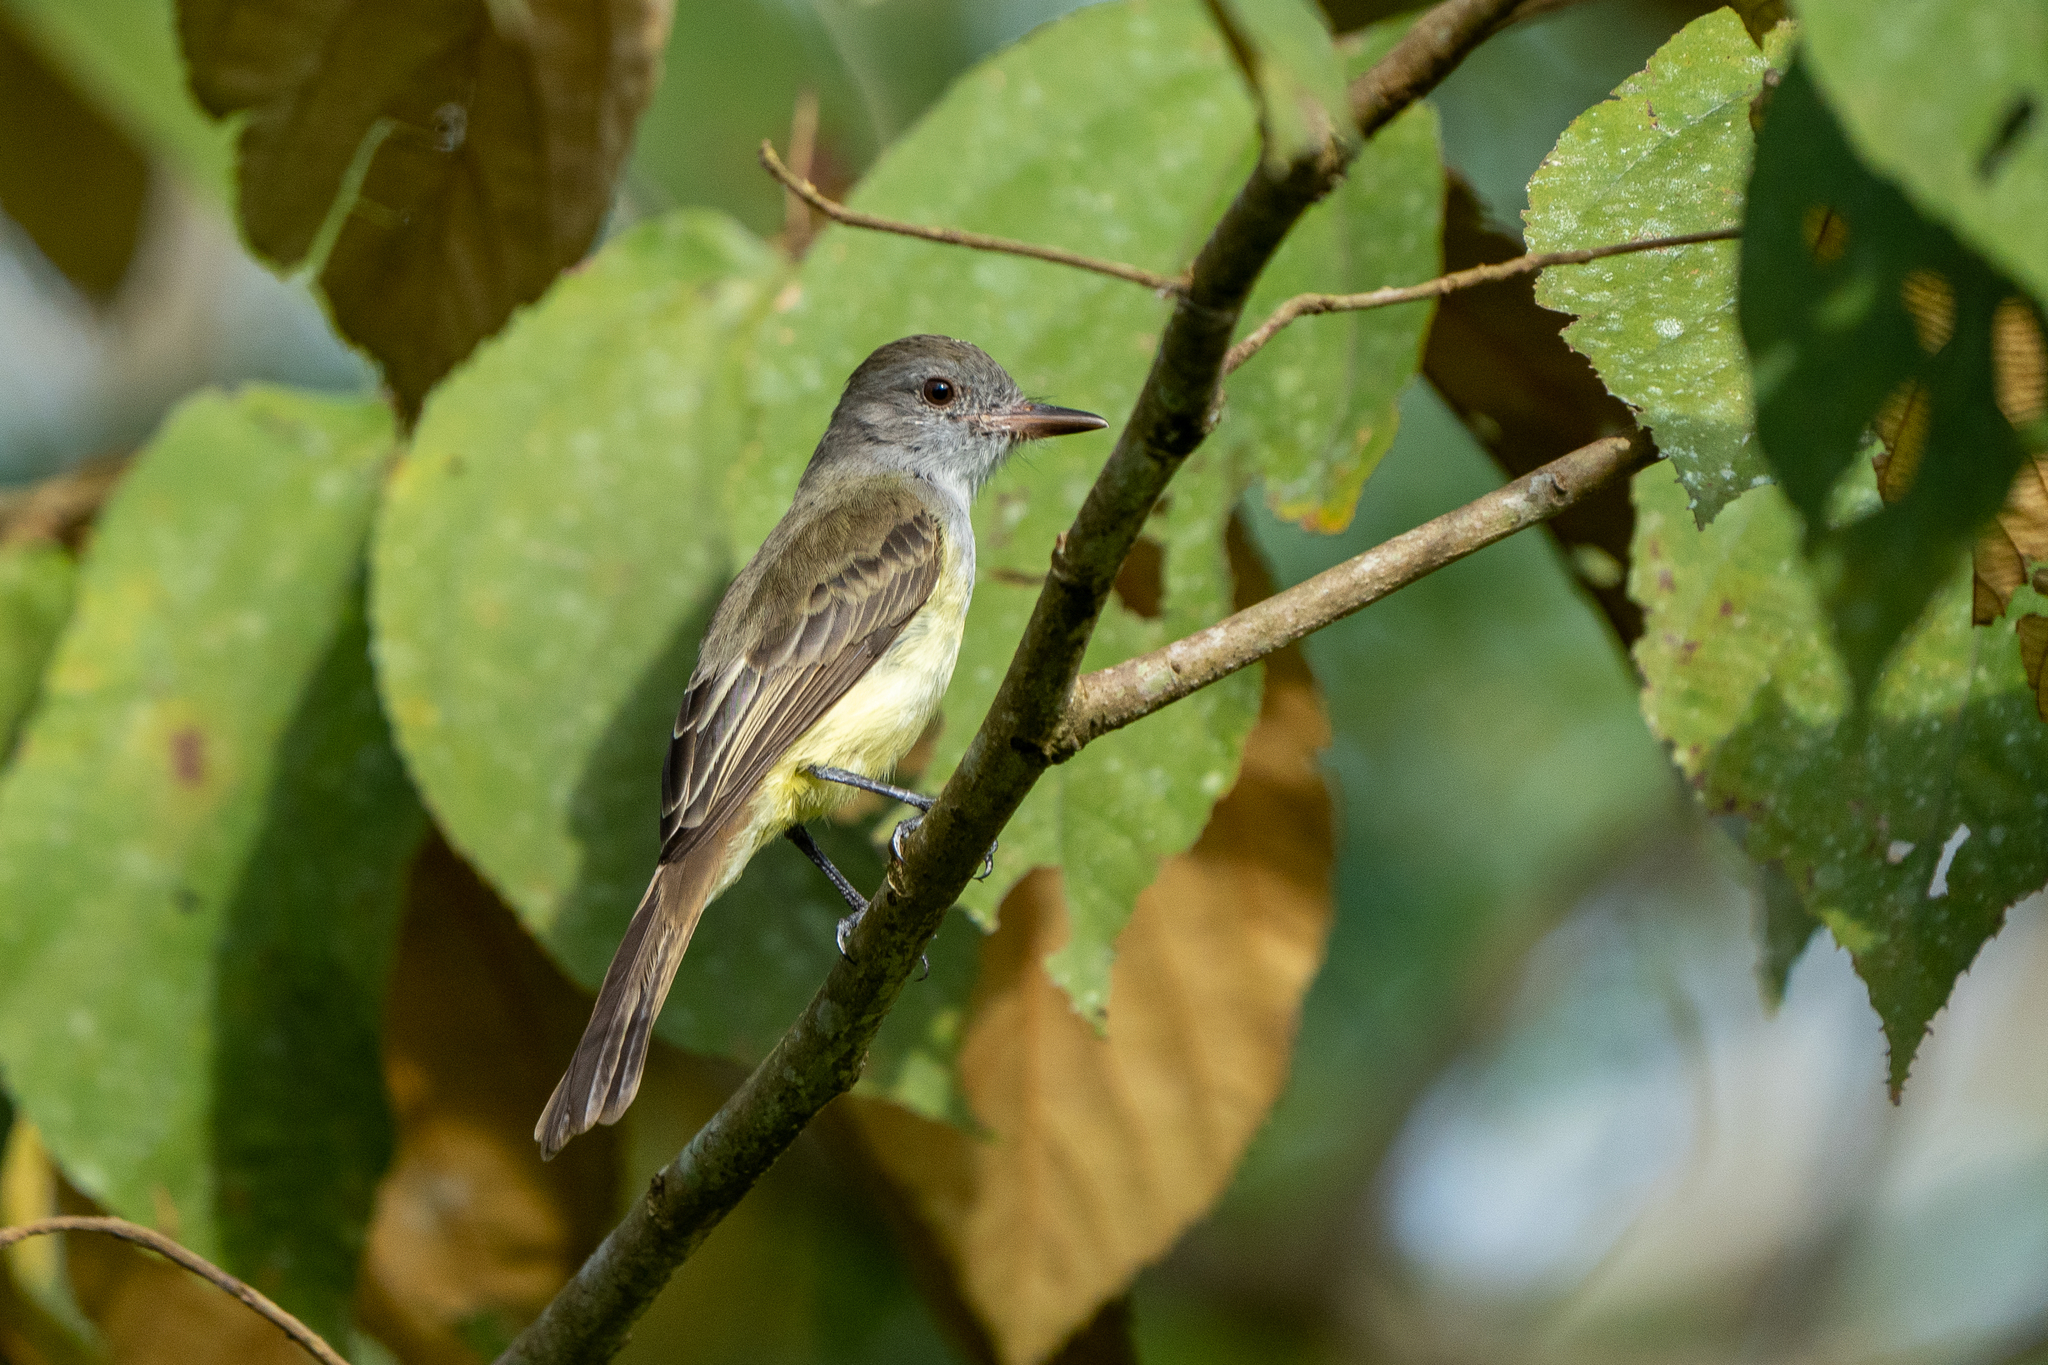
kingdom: Animalia
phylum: Chordata
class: Aves
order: Passeriformes
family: Tyrannidae
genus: Myiarchus
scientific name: Myiarchus panamensis
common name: Panama flycatcher
